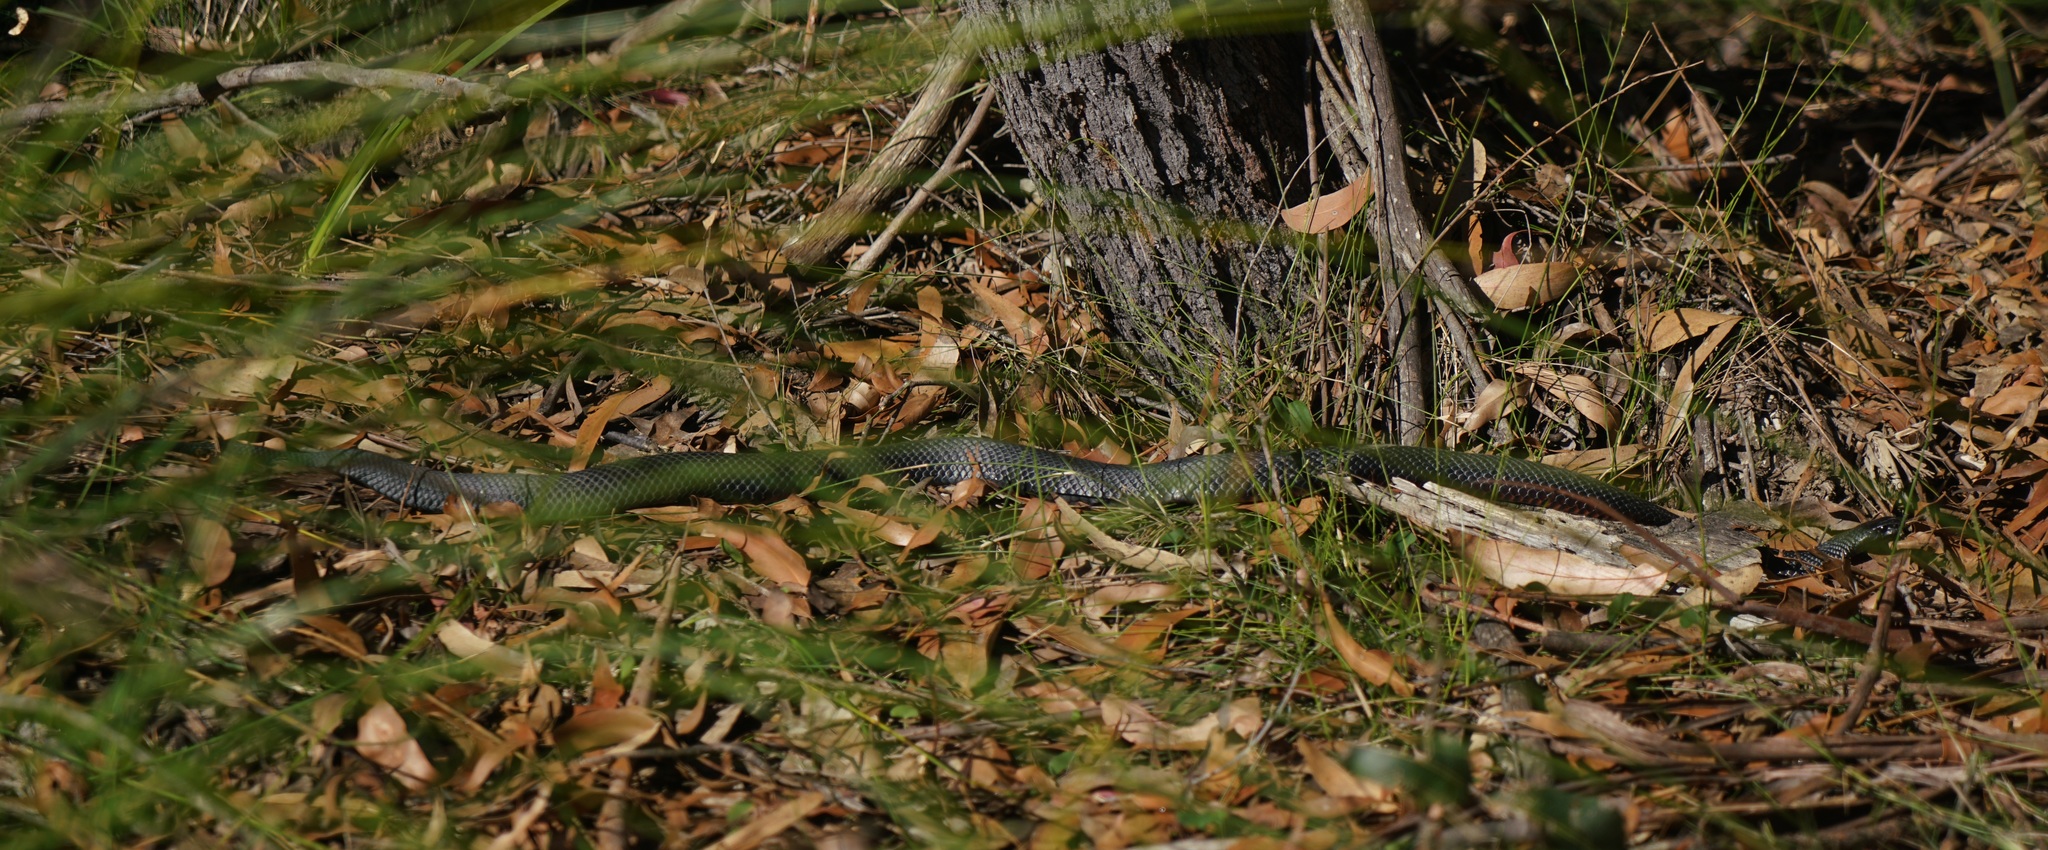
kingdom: Animalia
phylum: Chordata
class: Squamata
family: Elapidae
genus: Pseudechis
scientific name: Pseudechis porphyriacus
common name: Australian black snake
